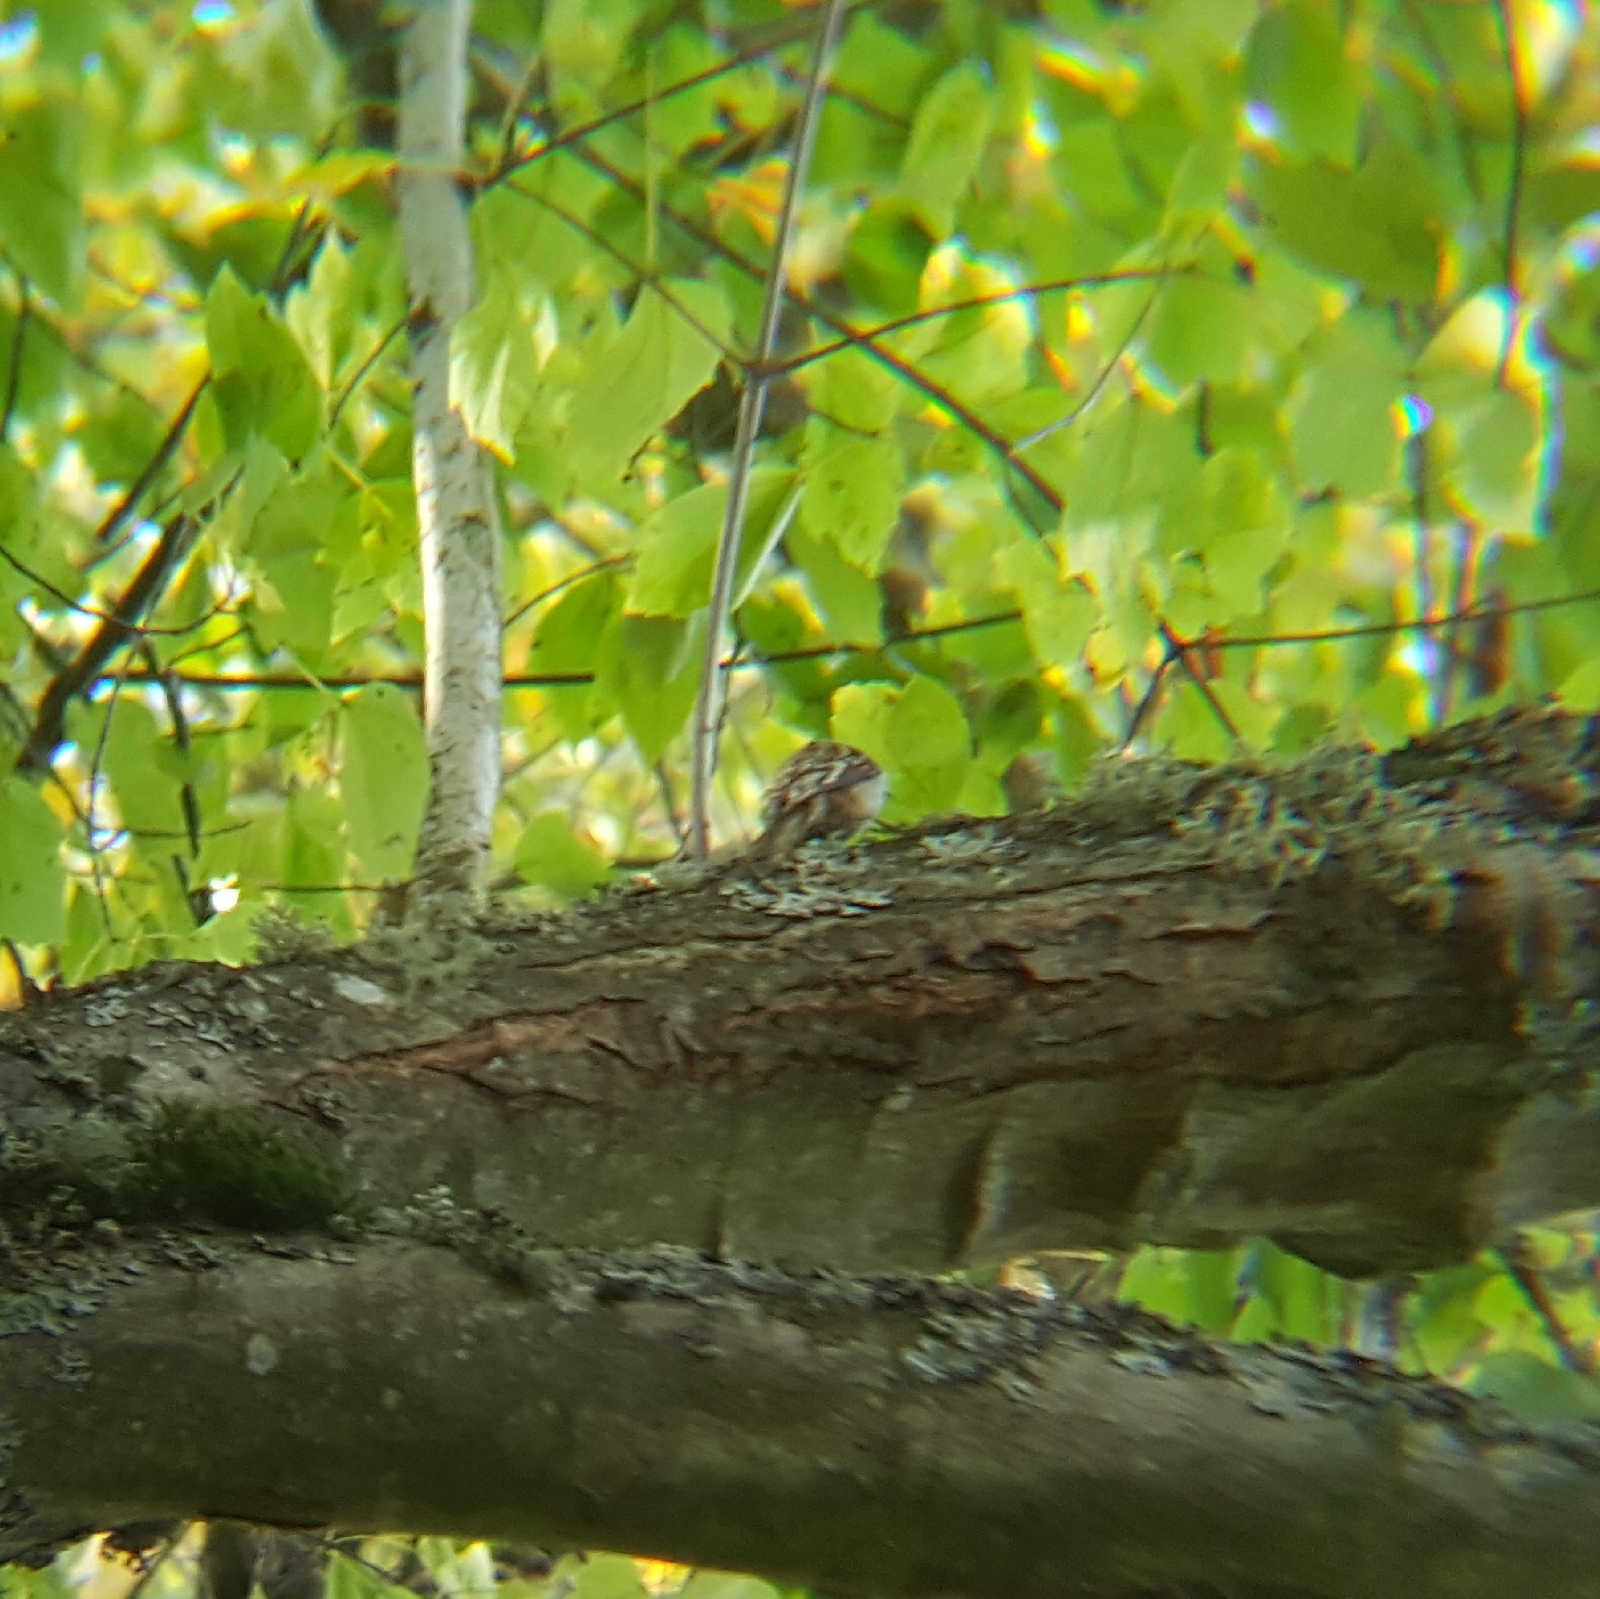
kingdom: Animalia
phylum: Chordata
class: Aves
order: Passeriformes
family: Certhiidae
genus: Certhia
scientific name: Certhia americana
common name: Brown creeper
